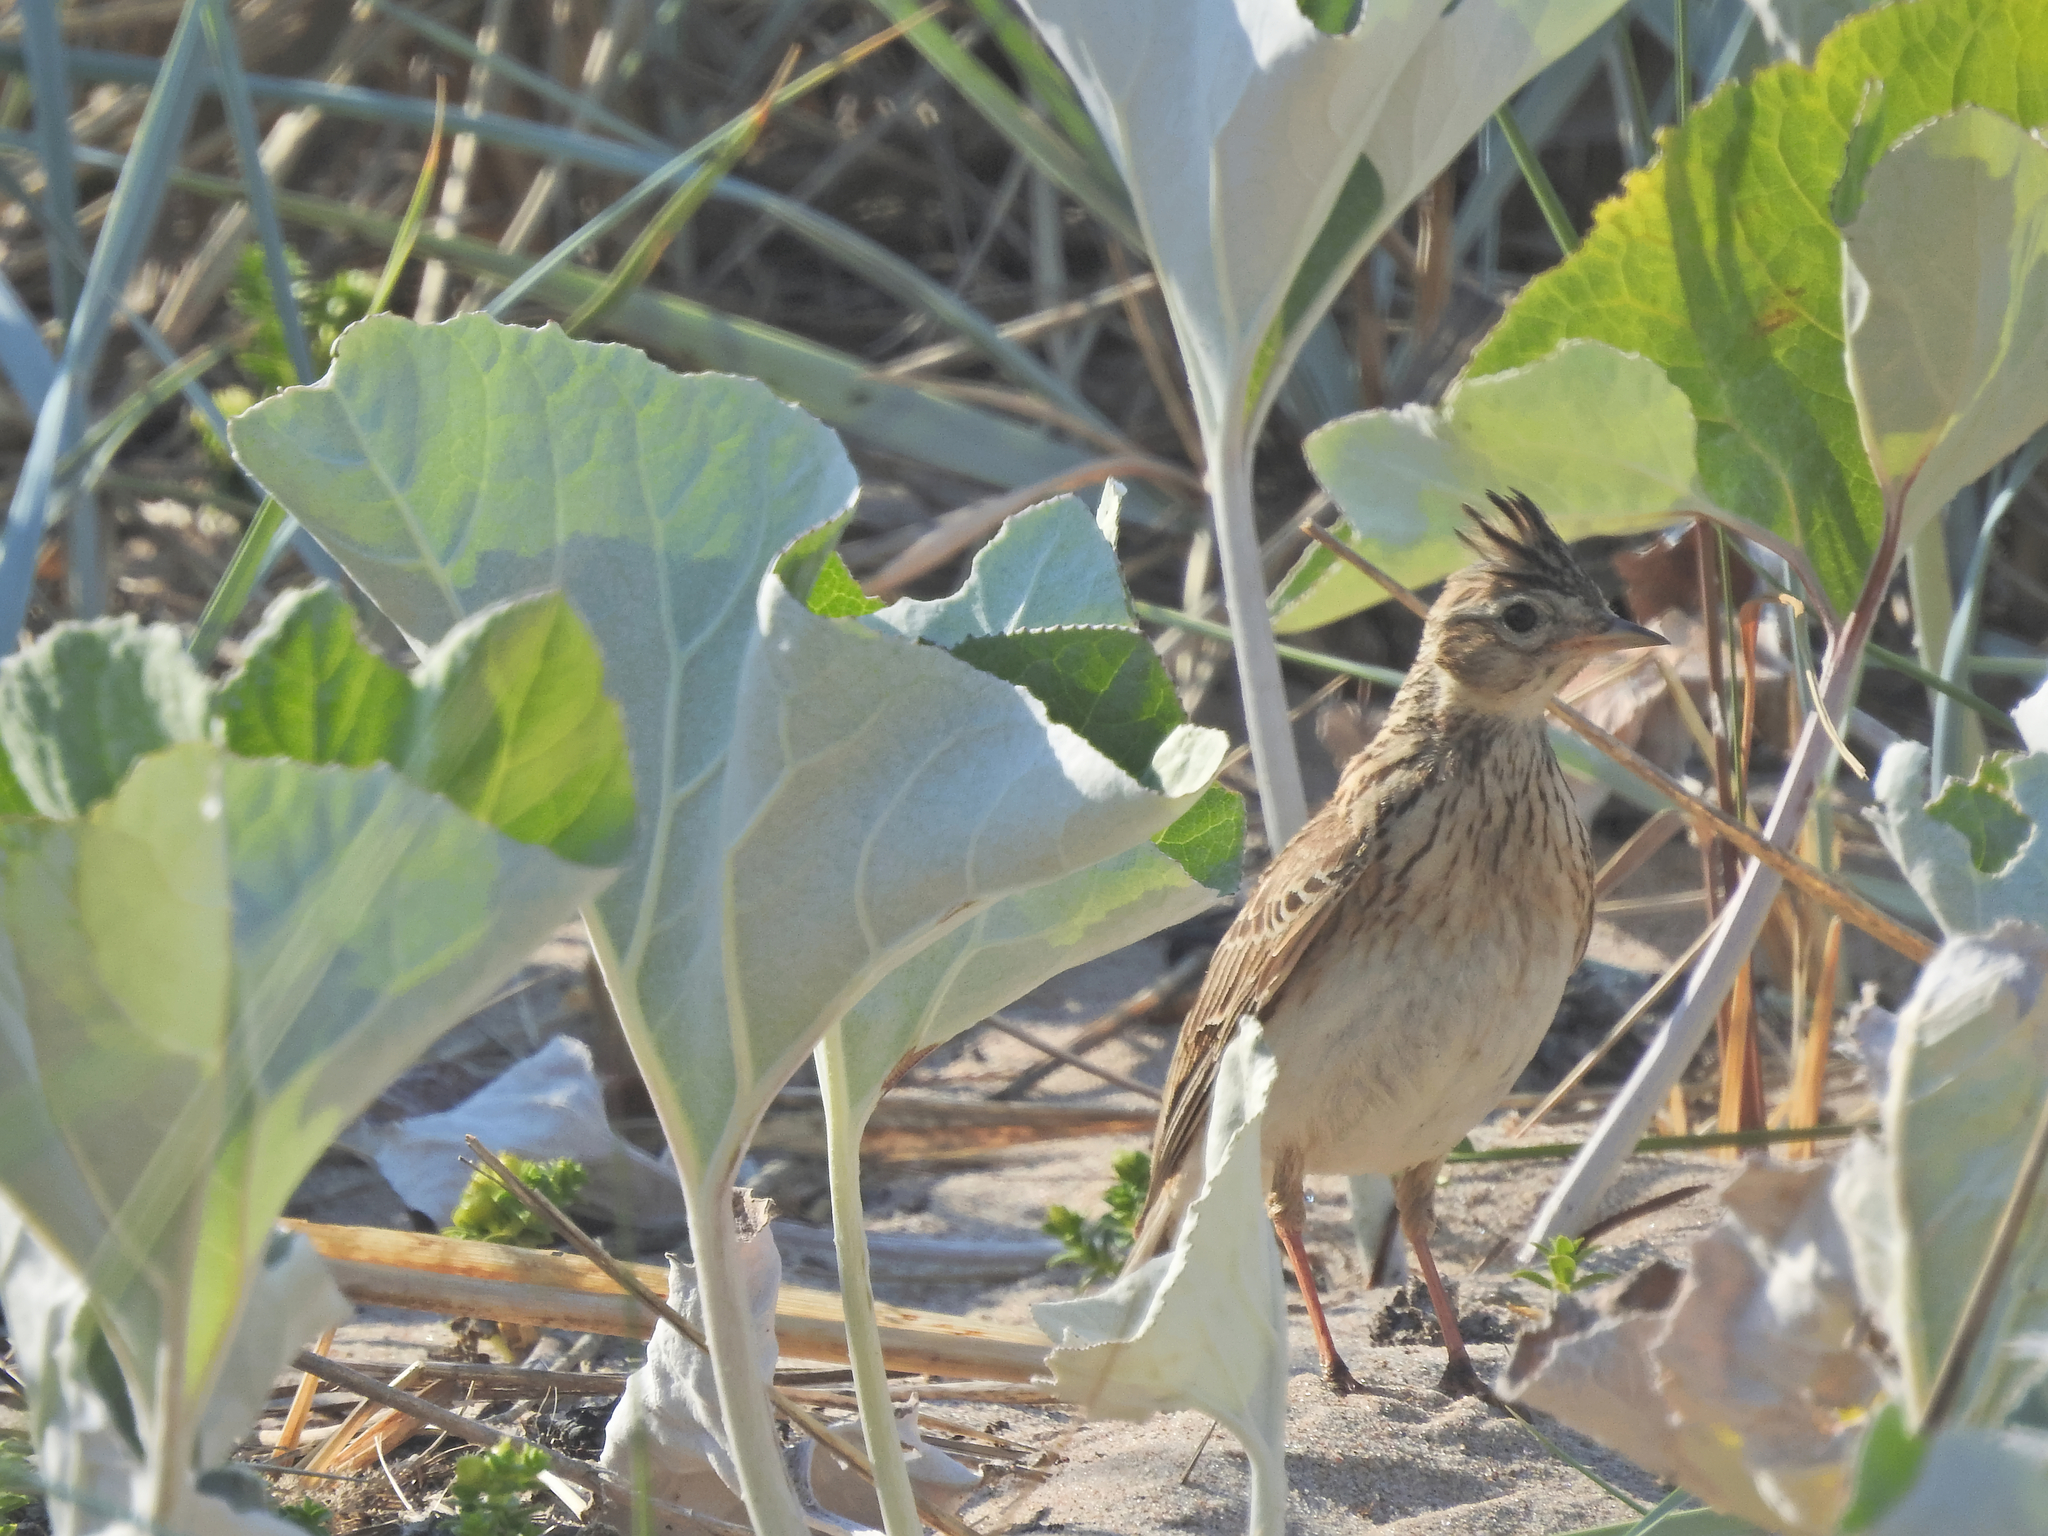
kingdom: Animalia
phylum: Chordata
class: Aves
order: Passeriformes
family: Alaudidae
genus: Alauda
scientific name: Alauda arvensis
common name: Eurasian skylark
